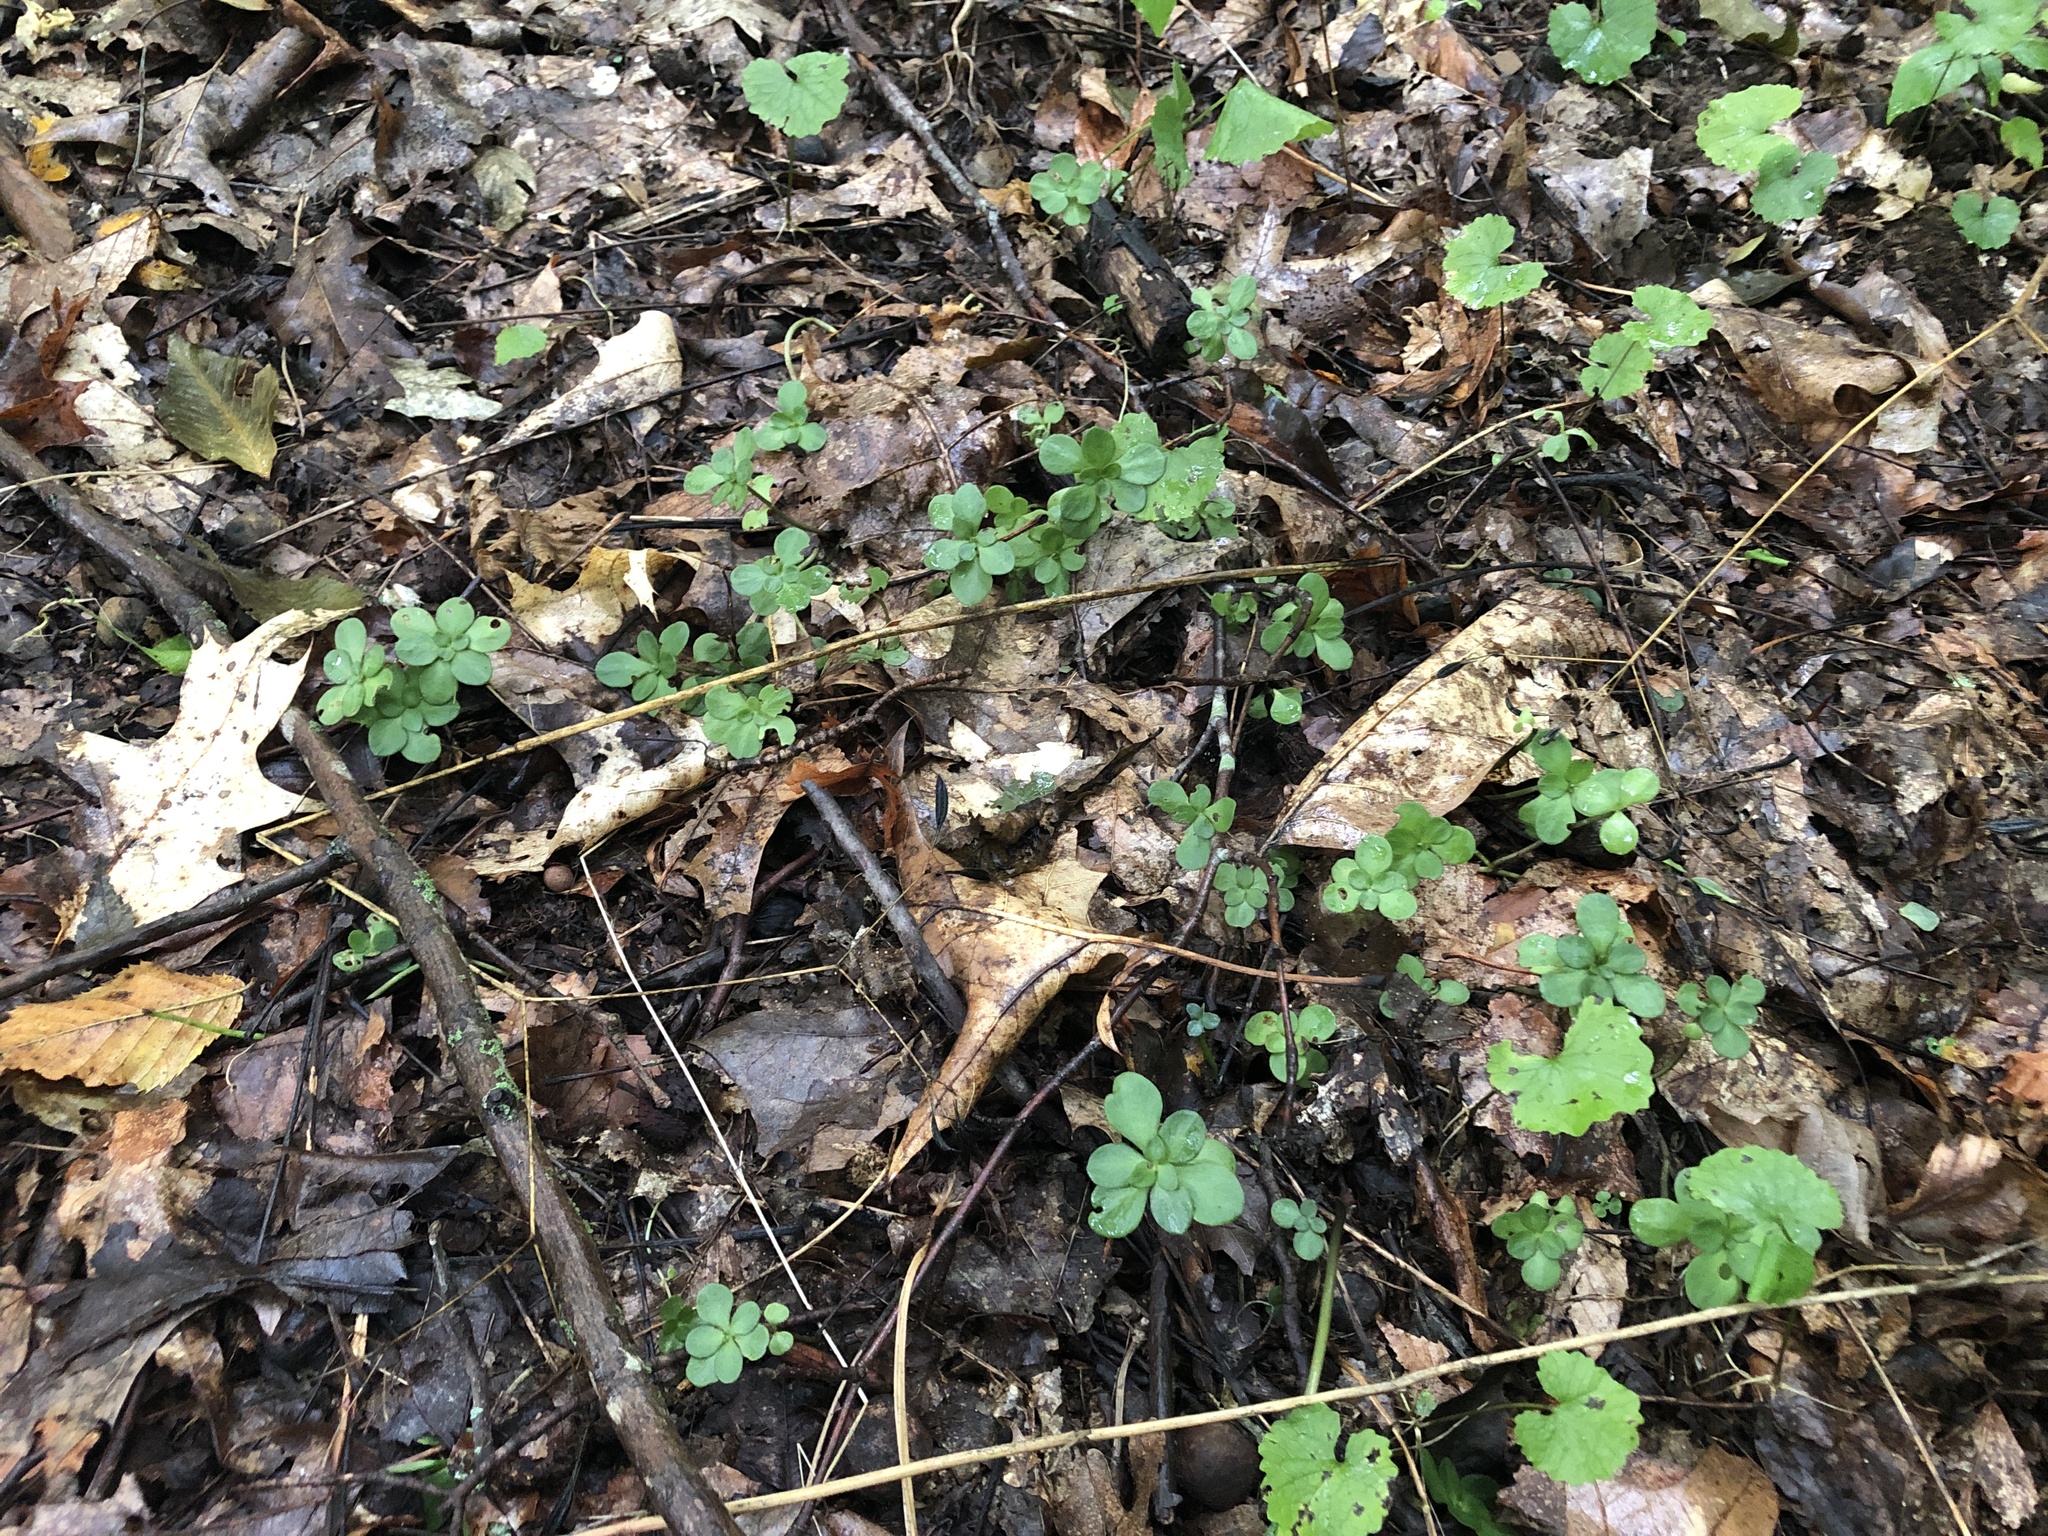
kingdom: Plantae
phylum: Tracheophyta
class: Magnoliopsida
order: Saxifragales
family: Crassulaceae
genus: Sedum
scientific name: Sedum ternatum
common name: Wild stonecrop
